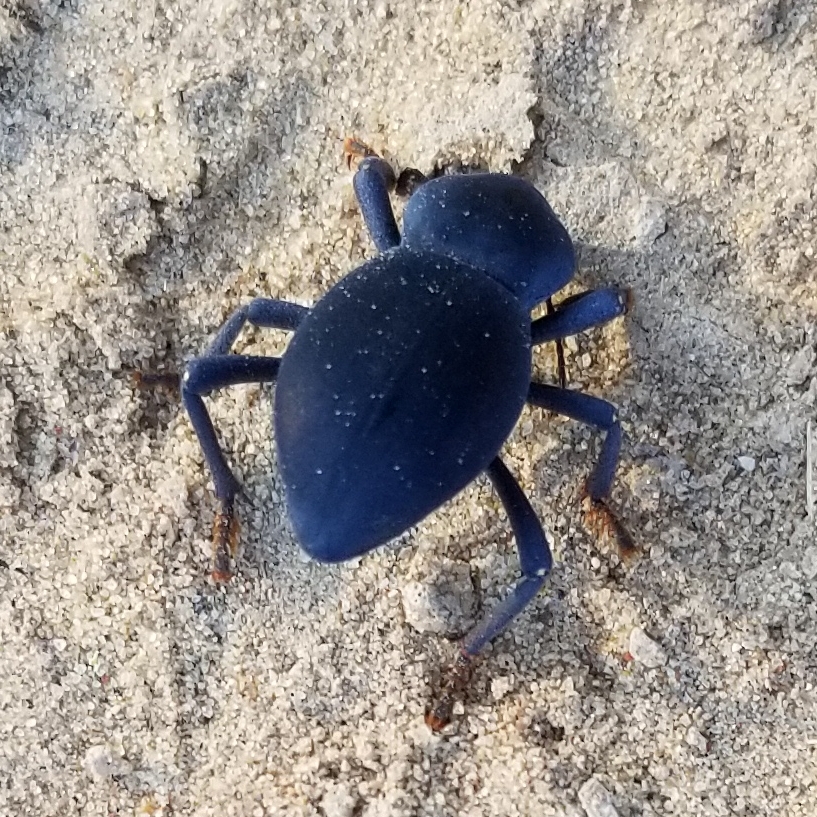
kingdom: Animalia
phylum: Arthropoda
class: Insecta
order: Coleoptera
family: Tenebrionidae
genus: Asbolus
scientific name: Asbolus laevis
